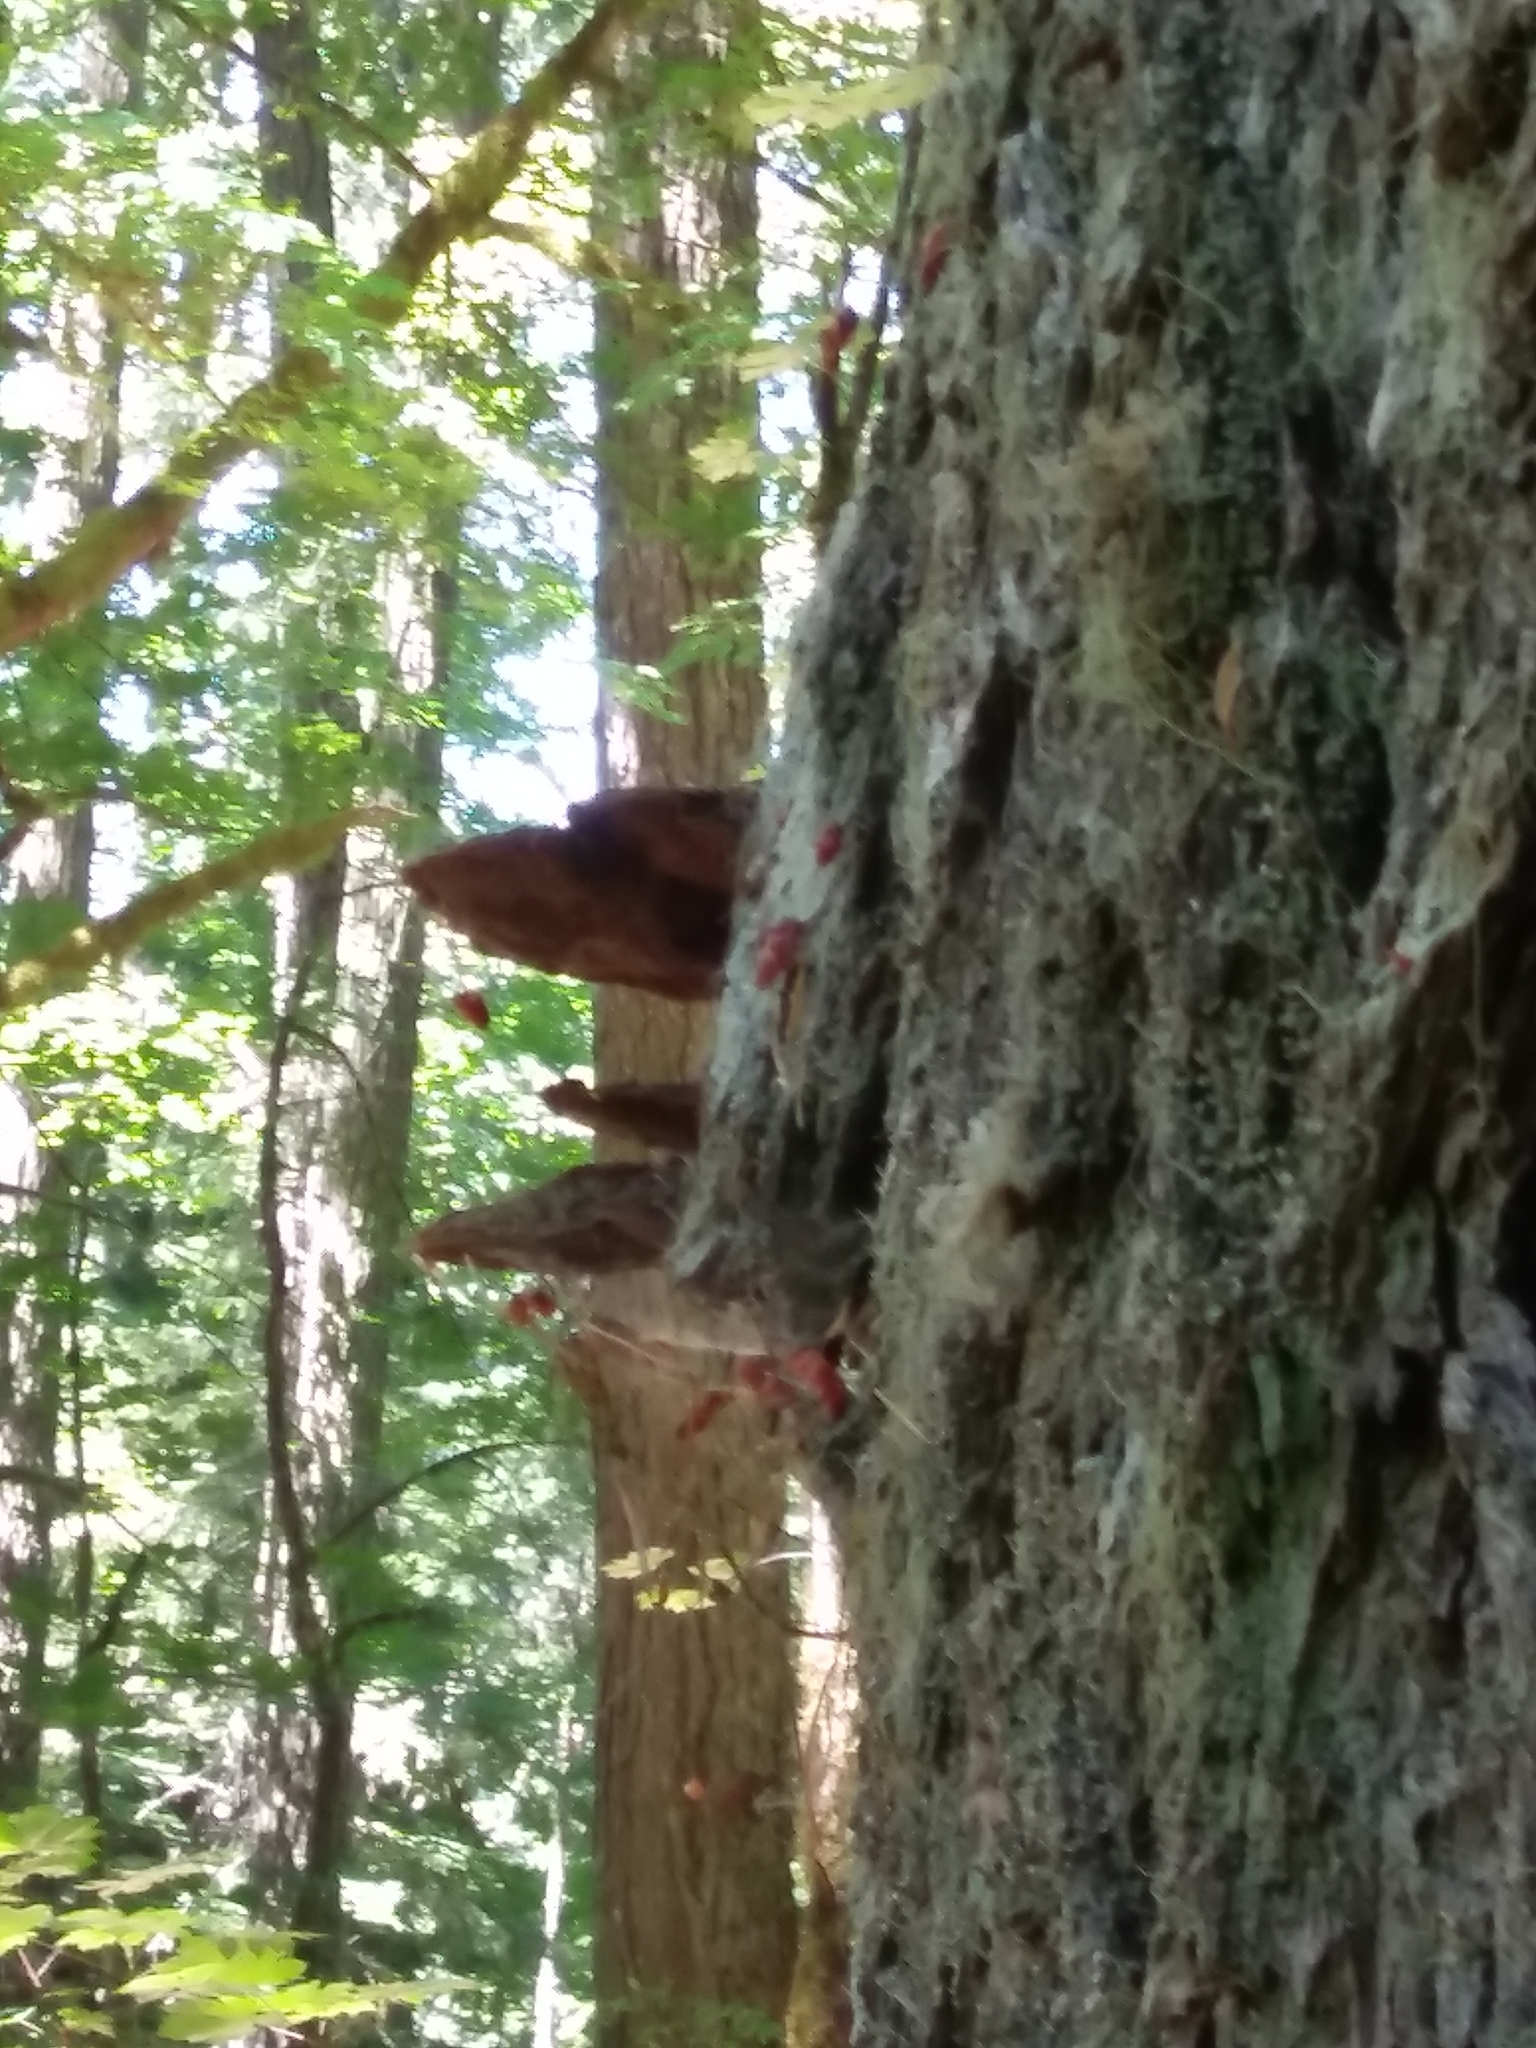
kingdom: Fungi
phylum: Basidiomycota
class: Agaricomycetes
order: Hymenochaetales
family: Hymenochaetaceae
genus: Porodaedalea
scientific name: Porodaedalea pini
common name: Pine bracket
